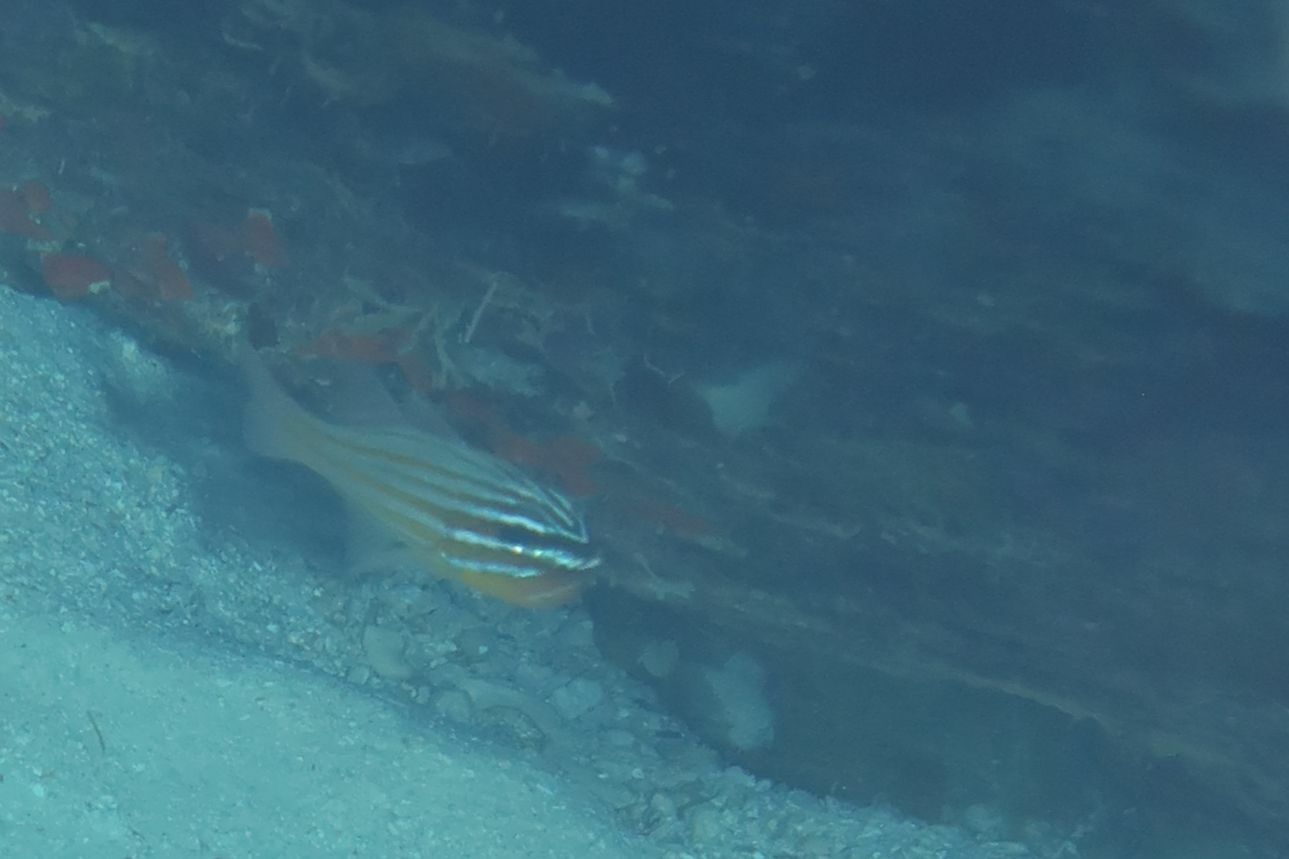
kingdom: Animalia
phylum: Chordata
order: Perciformes
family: Apogonidae
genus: Ostorhinchus
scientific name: Ostorhinchus cyanosoma
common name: Yellow-striped cardinalfish
